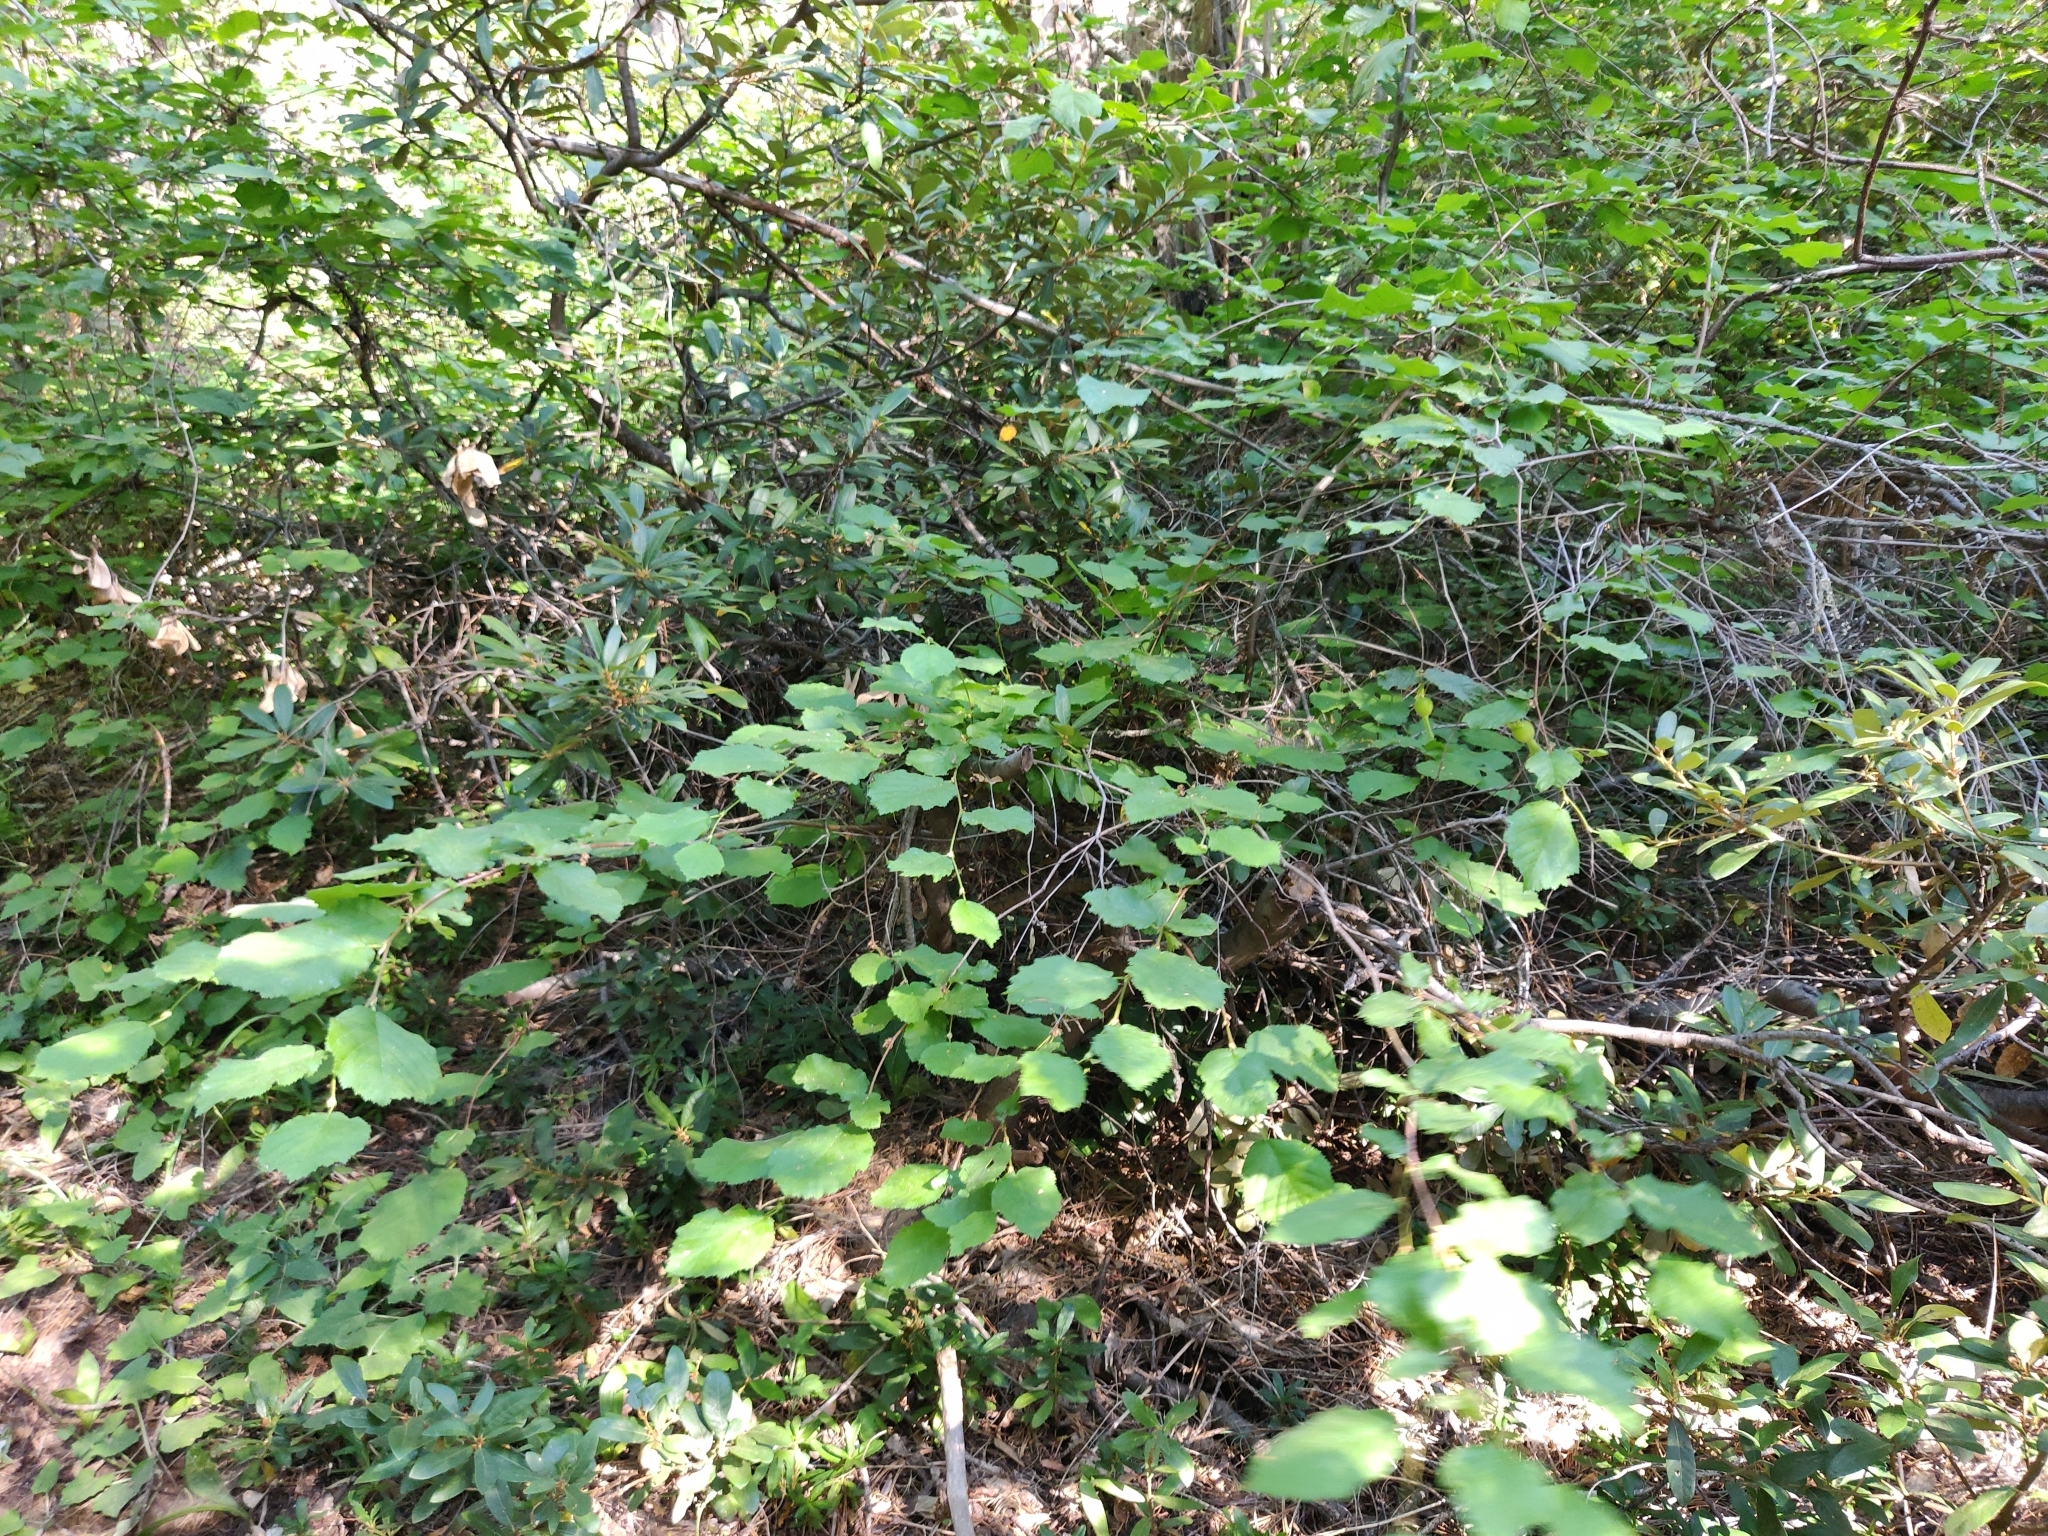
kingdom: Plantae
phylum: Tracheophyta
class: Magnoliopsida
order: Fagales
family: Betulaceae
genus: Corylus
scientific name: Corylus cornuta
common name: Beaked hazel
